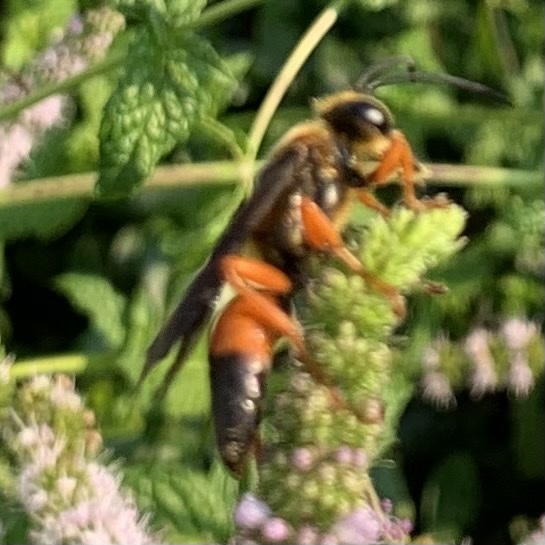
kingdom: Animalia
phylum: Arthropoda
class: Insecta
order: Hymenoptera
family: Sphecidae
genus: Sphex
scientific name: Sphex ichneumoneus
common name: Great golden digger wasp
